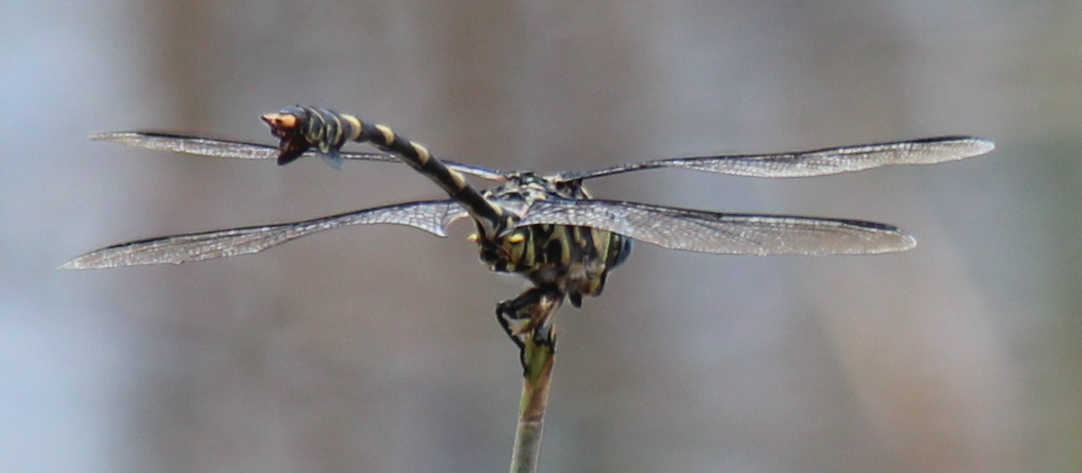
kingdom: Animalia
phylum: Arthropoda
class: Insecta
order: Odonata
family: Gomphidae
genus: Ictinogomphus
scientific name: Ictinogomphus ferox
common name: Common tiger
